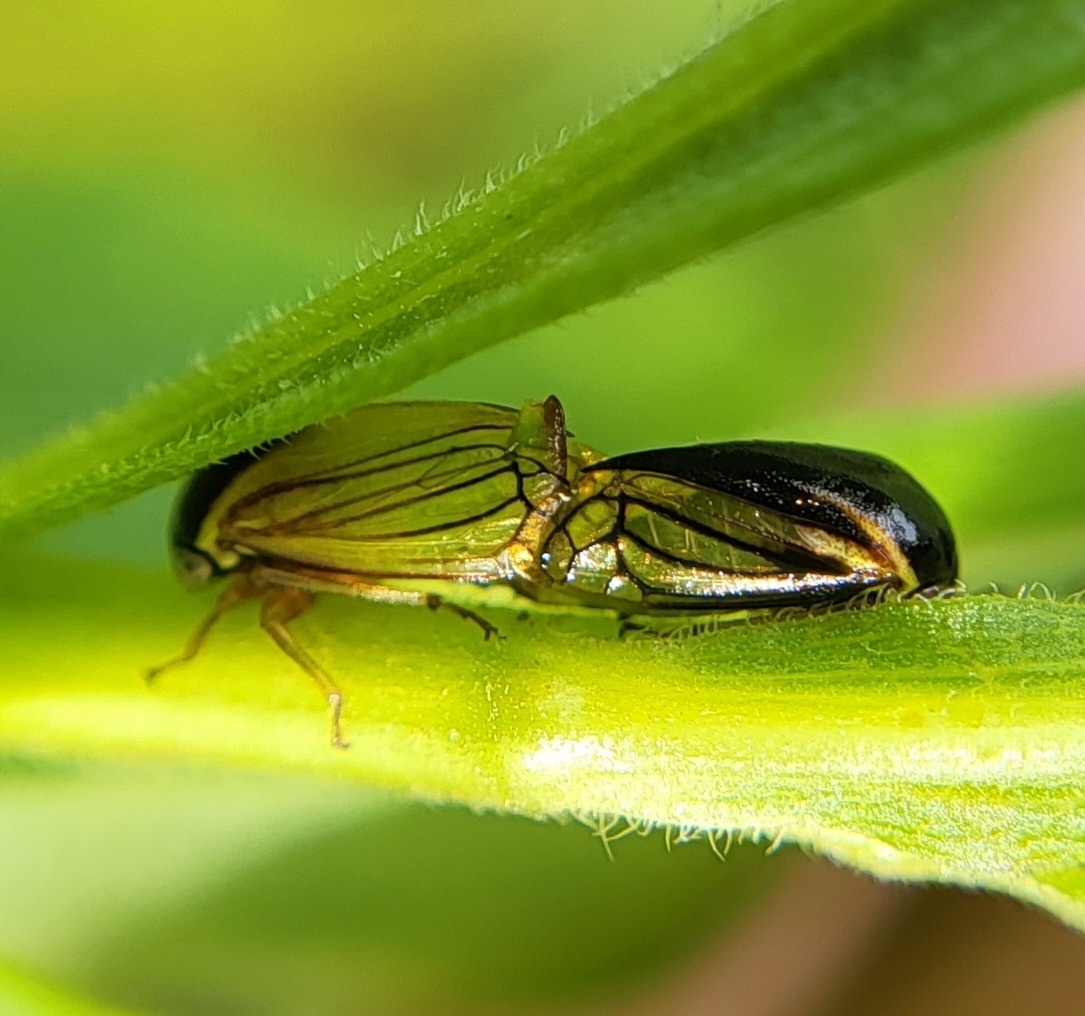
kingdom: Animalia
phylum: Arthropoda
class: Insecta
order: Hemiptera
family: Membracidae
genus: Acutalis
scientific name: Acutalis tartarea
